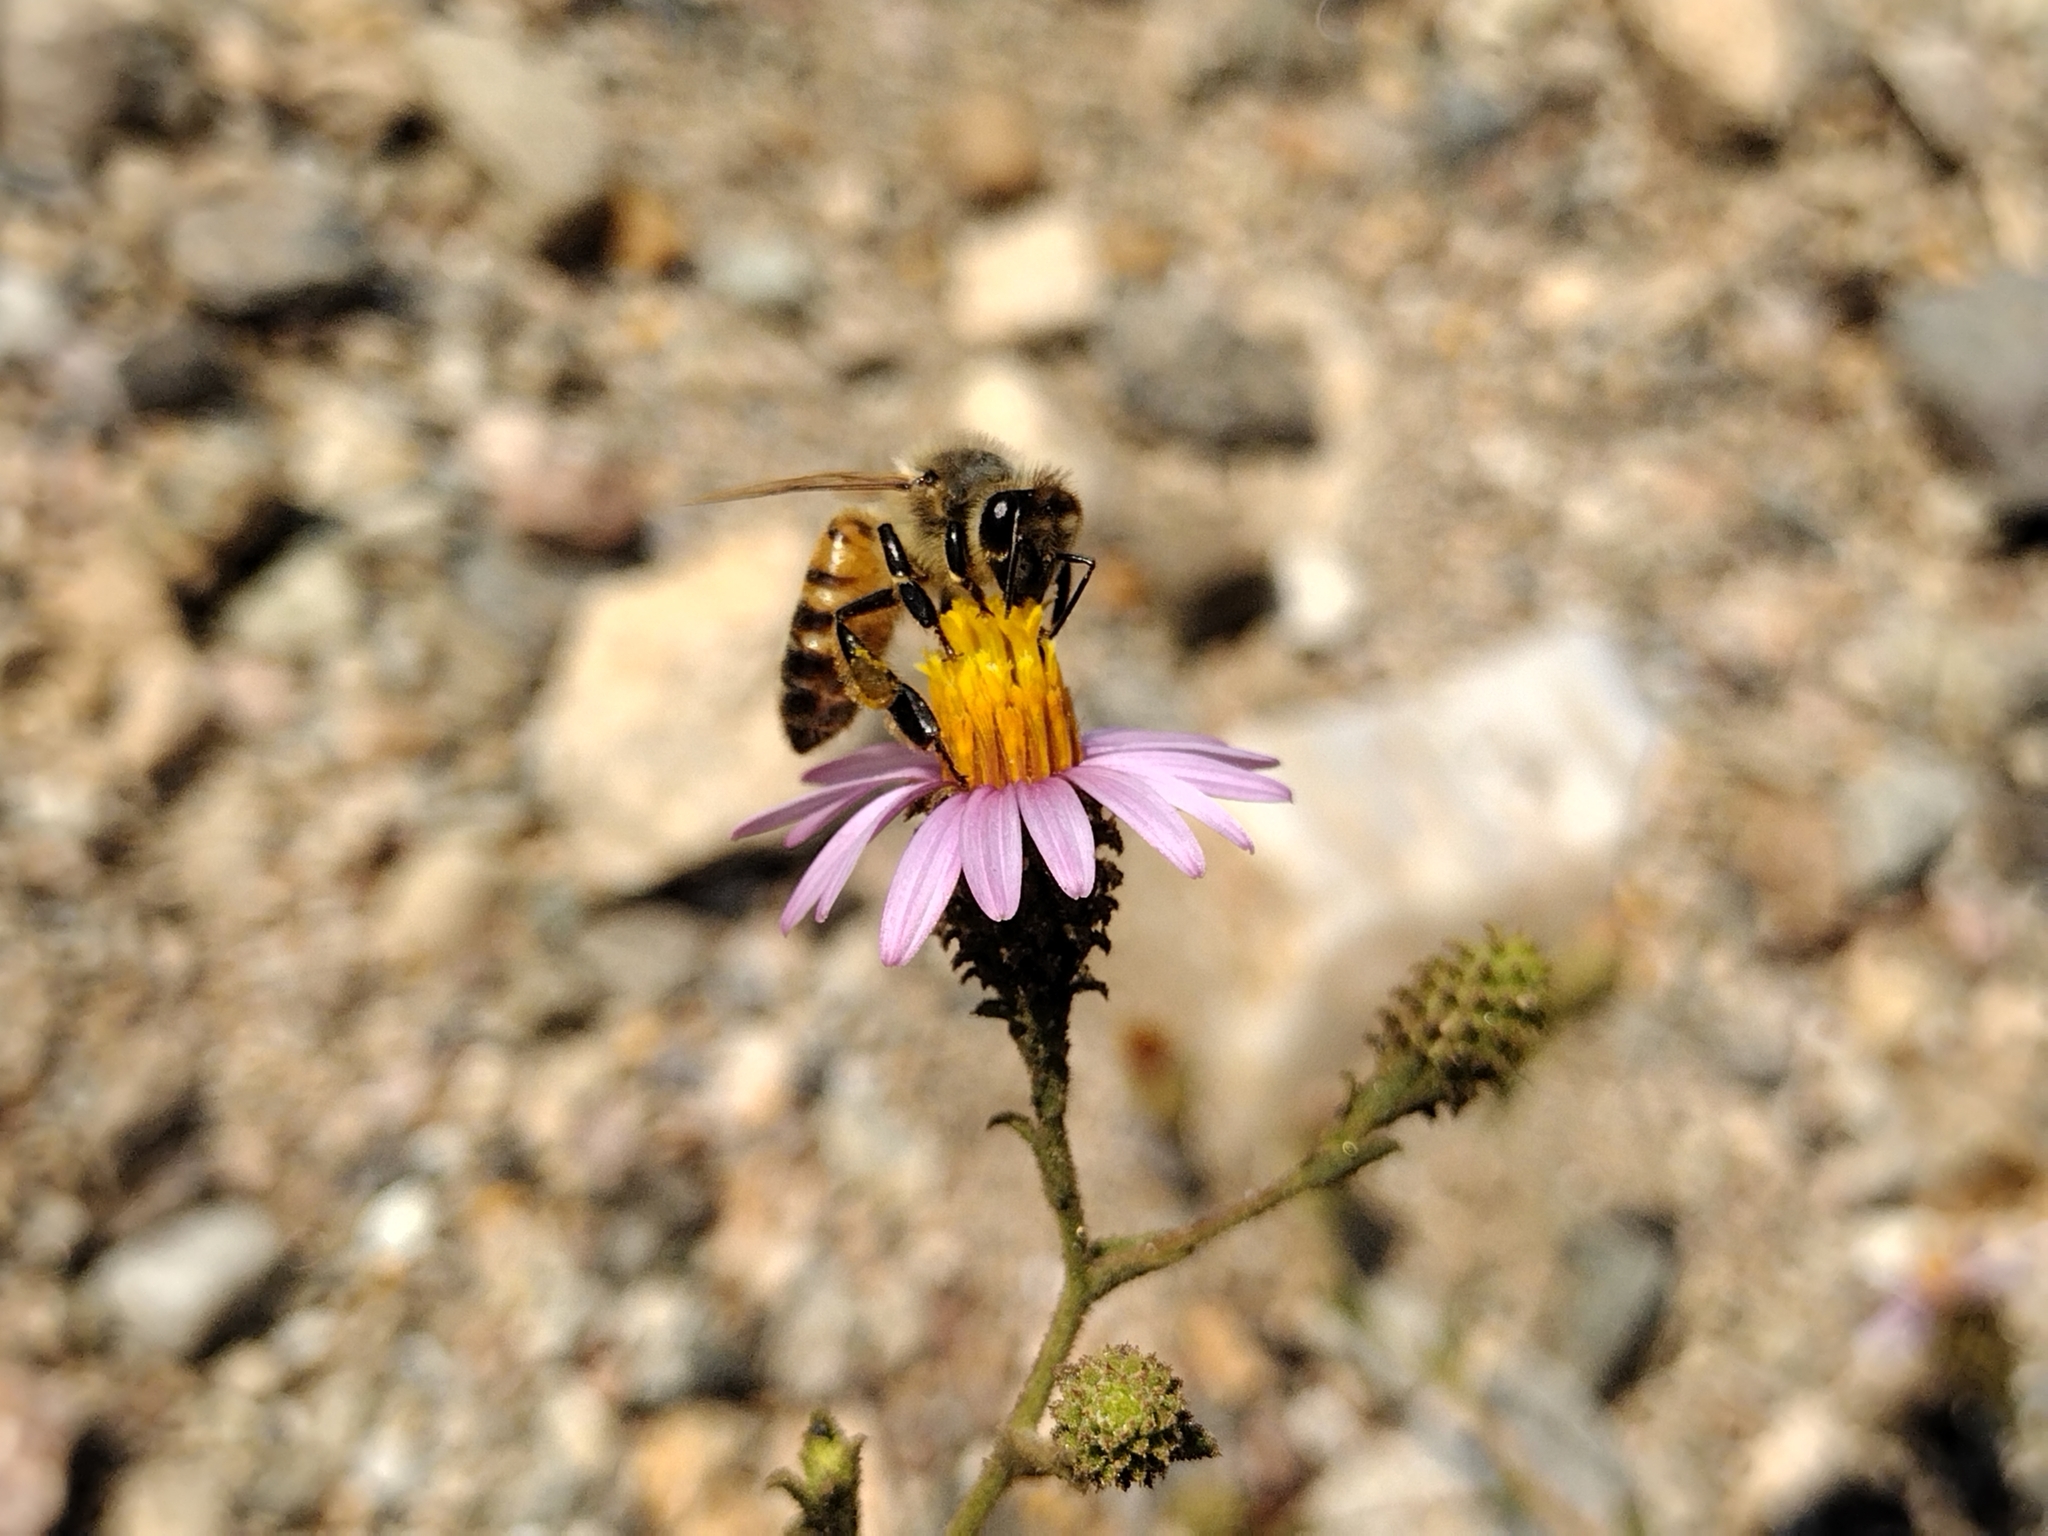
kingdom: Plantae
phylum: Tracheophyta
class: Magnoliopsida
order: Asterales
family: Asteraceae
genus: Corethrogyne
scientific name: Corethrogyne filaginifolia
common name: Sand-aster
